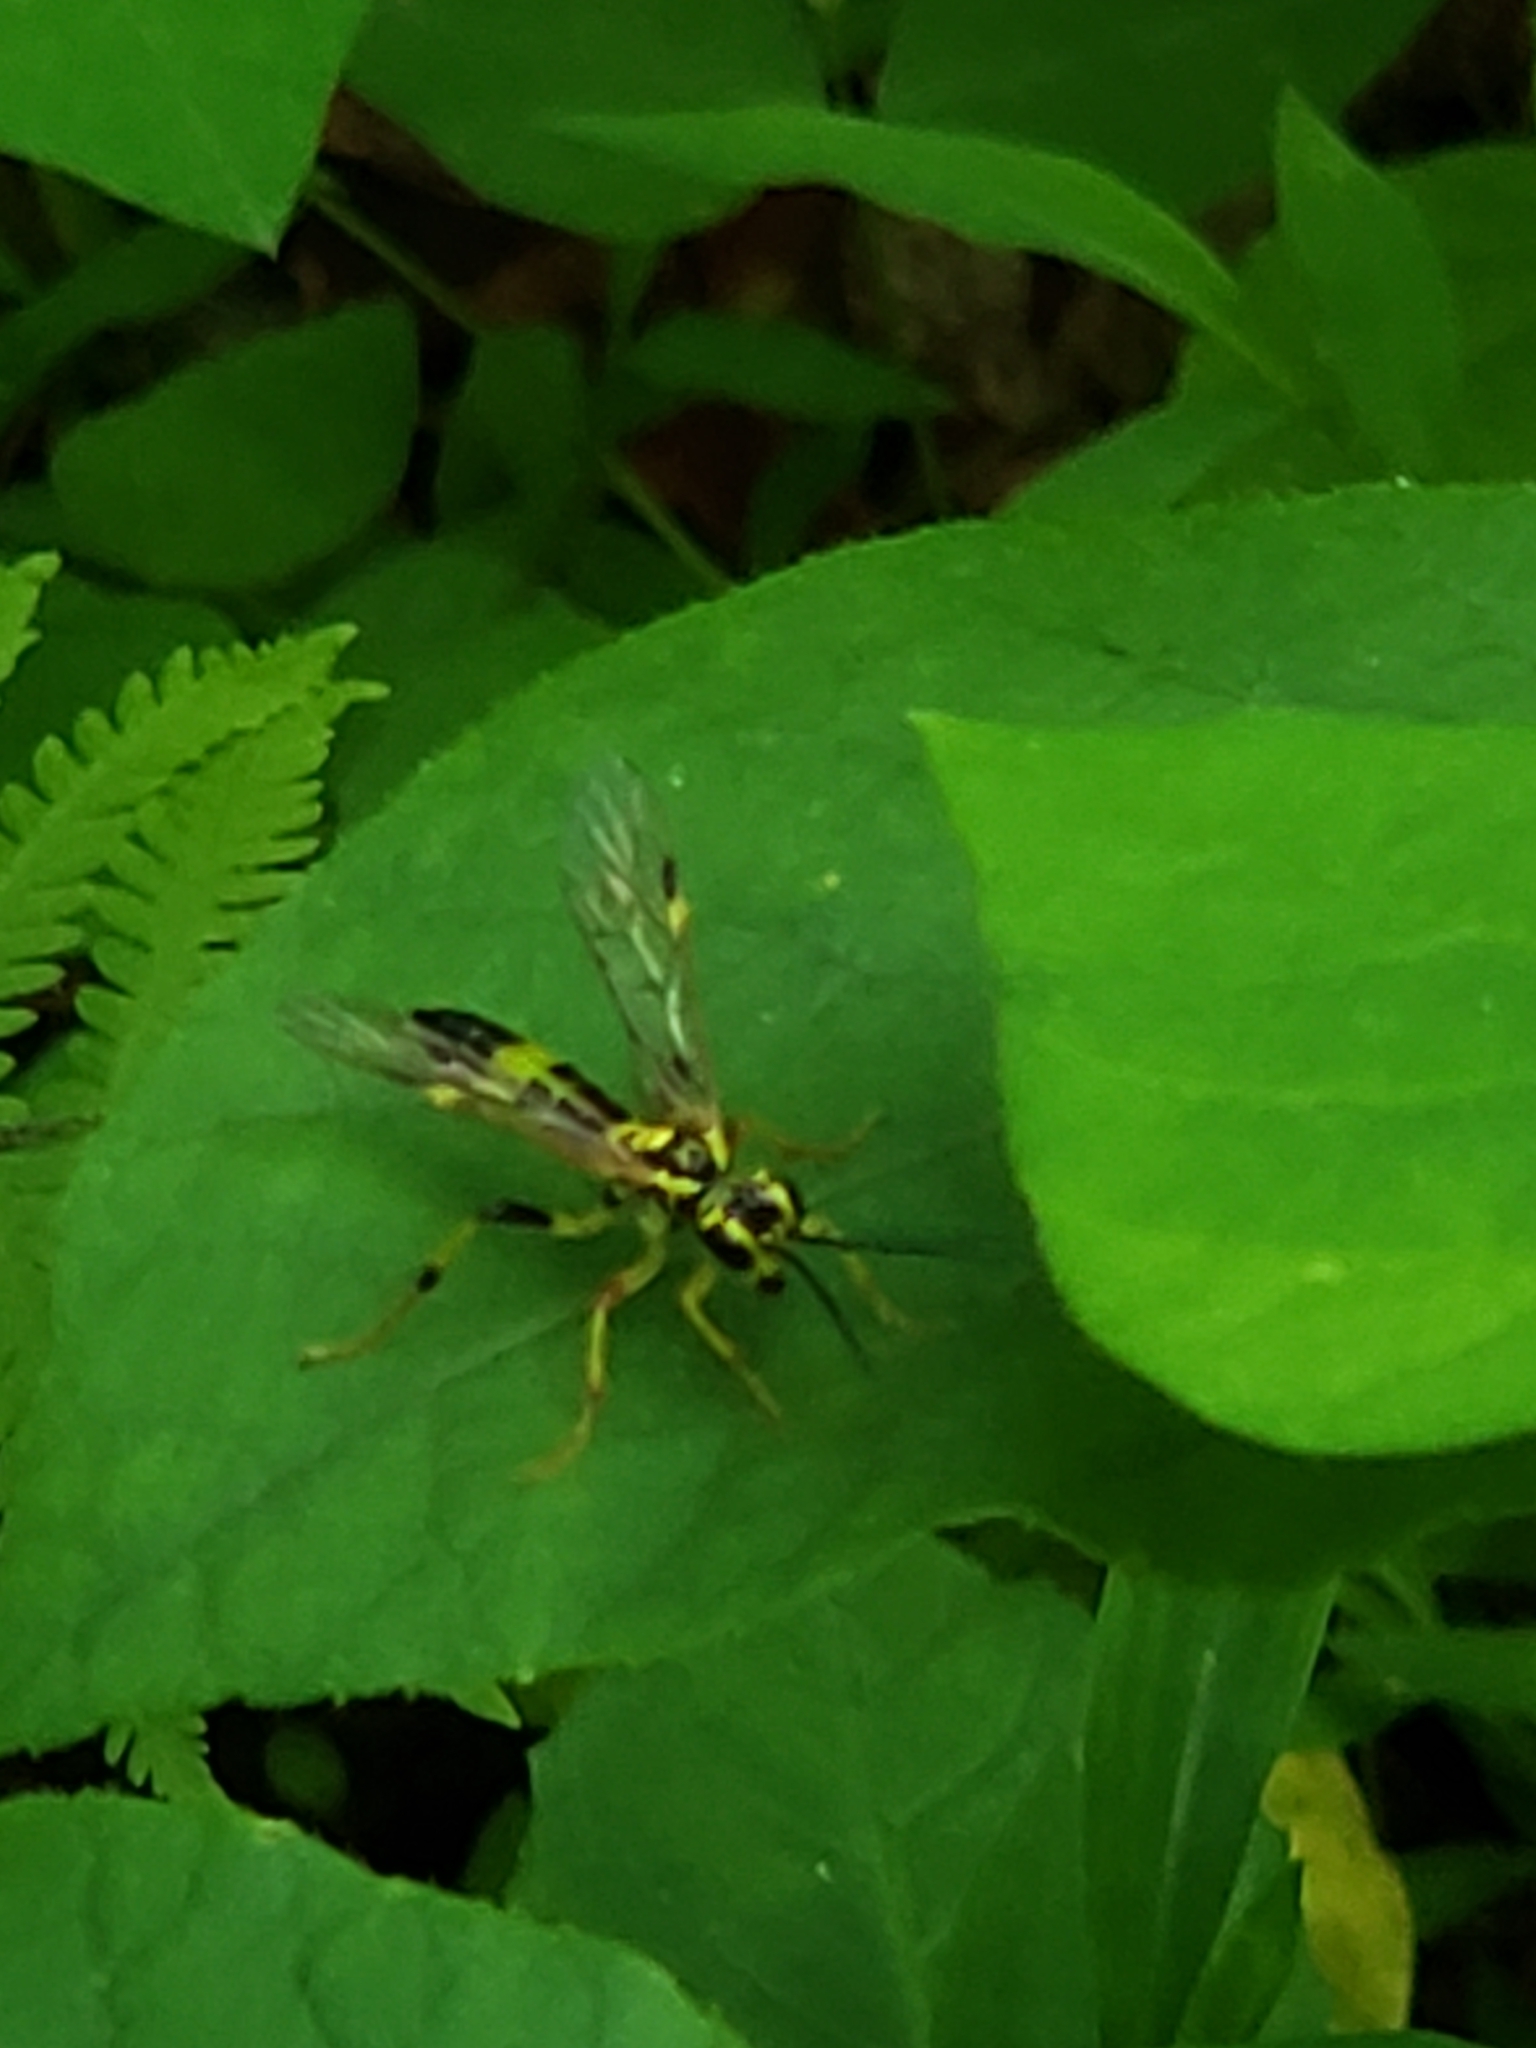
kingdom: Animalia
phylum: Arthropoda
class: Insecta
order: Hymenoptera
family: Tenthredinidae
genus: Tenthredo
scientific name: Tenthredo
